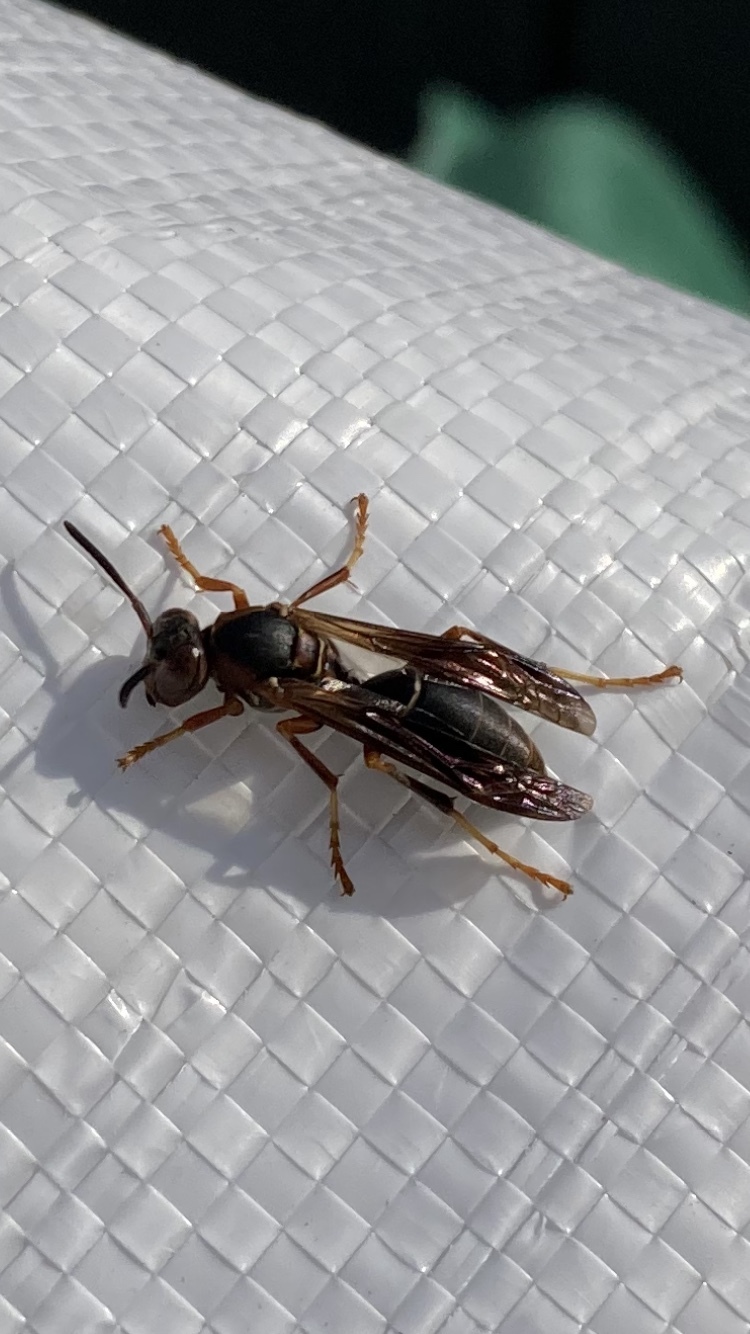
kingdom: Animalia
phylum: Arthropoda
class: Insecta
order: Hymenoptera
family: Eumenidae
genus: Polistes
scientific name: Polistes fuscatus
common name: Dark paper wasp
